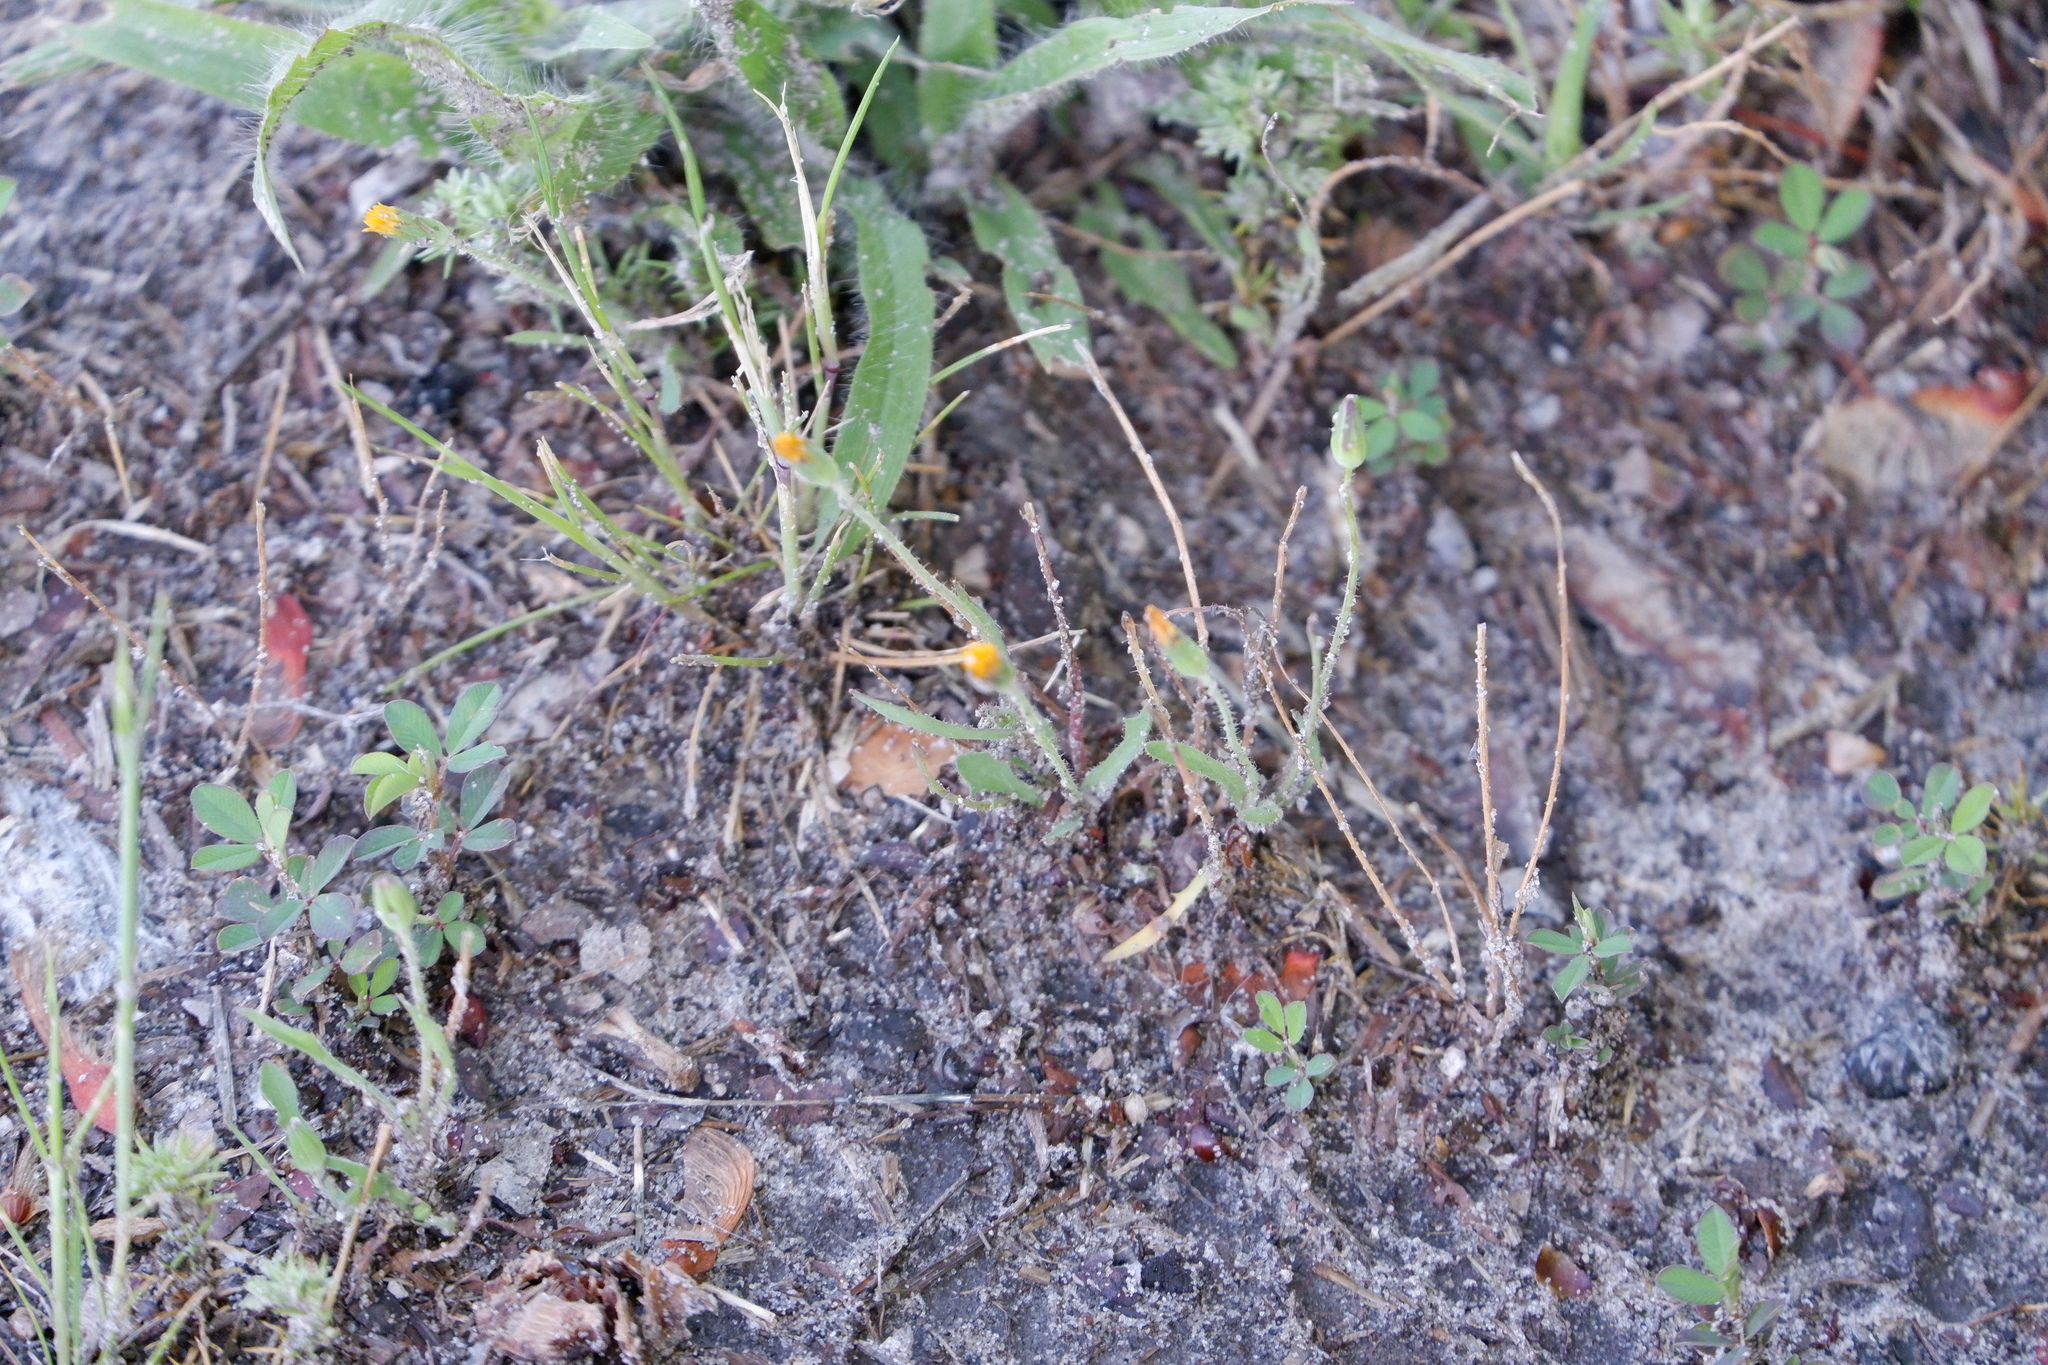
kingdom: Plantae
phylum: Tracheophyta
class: Magnoliopsida
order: Asterales
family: Asteraceae
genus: Krigia
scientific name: Krigia virginica
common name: Virginia dwarf-dandelion
